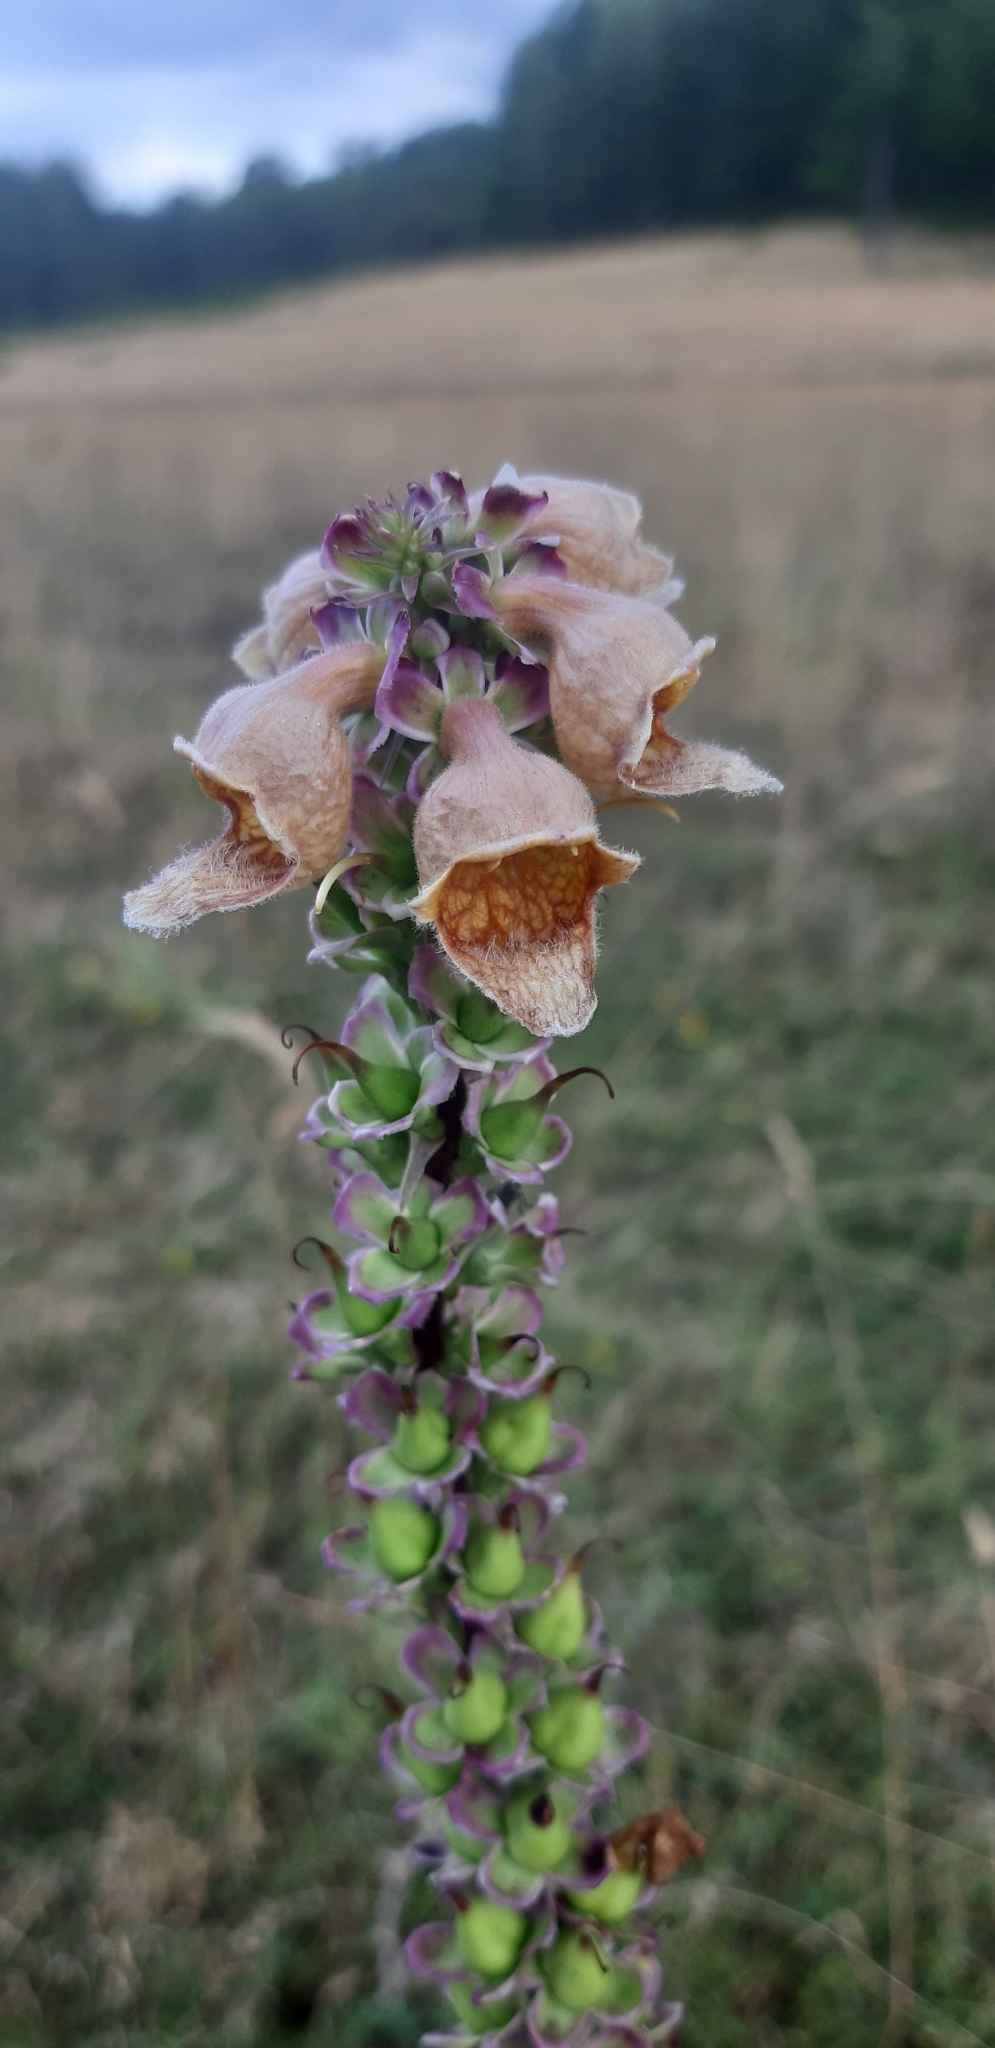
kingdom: Plantae
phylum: Tracheophyta
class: Magnoliopsida
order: Lamiales
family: Plantaginaceae
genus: Digitalis
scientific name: Digitalis ferruginea
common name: Rusty foxglove
